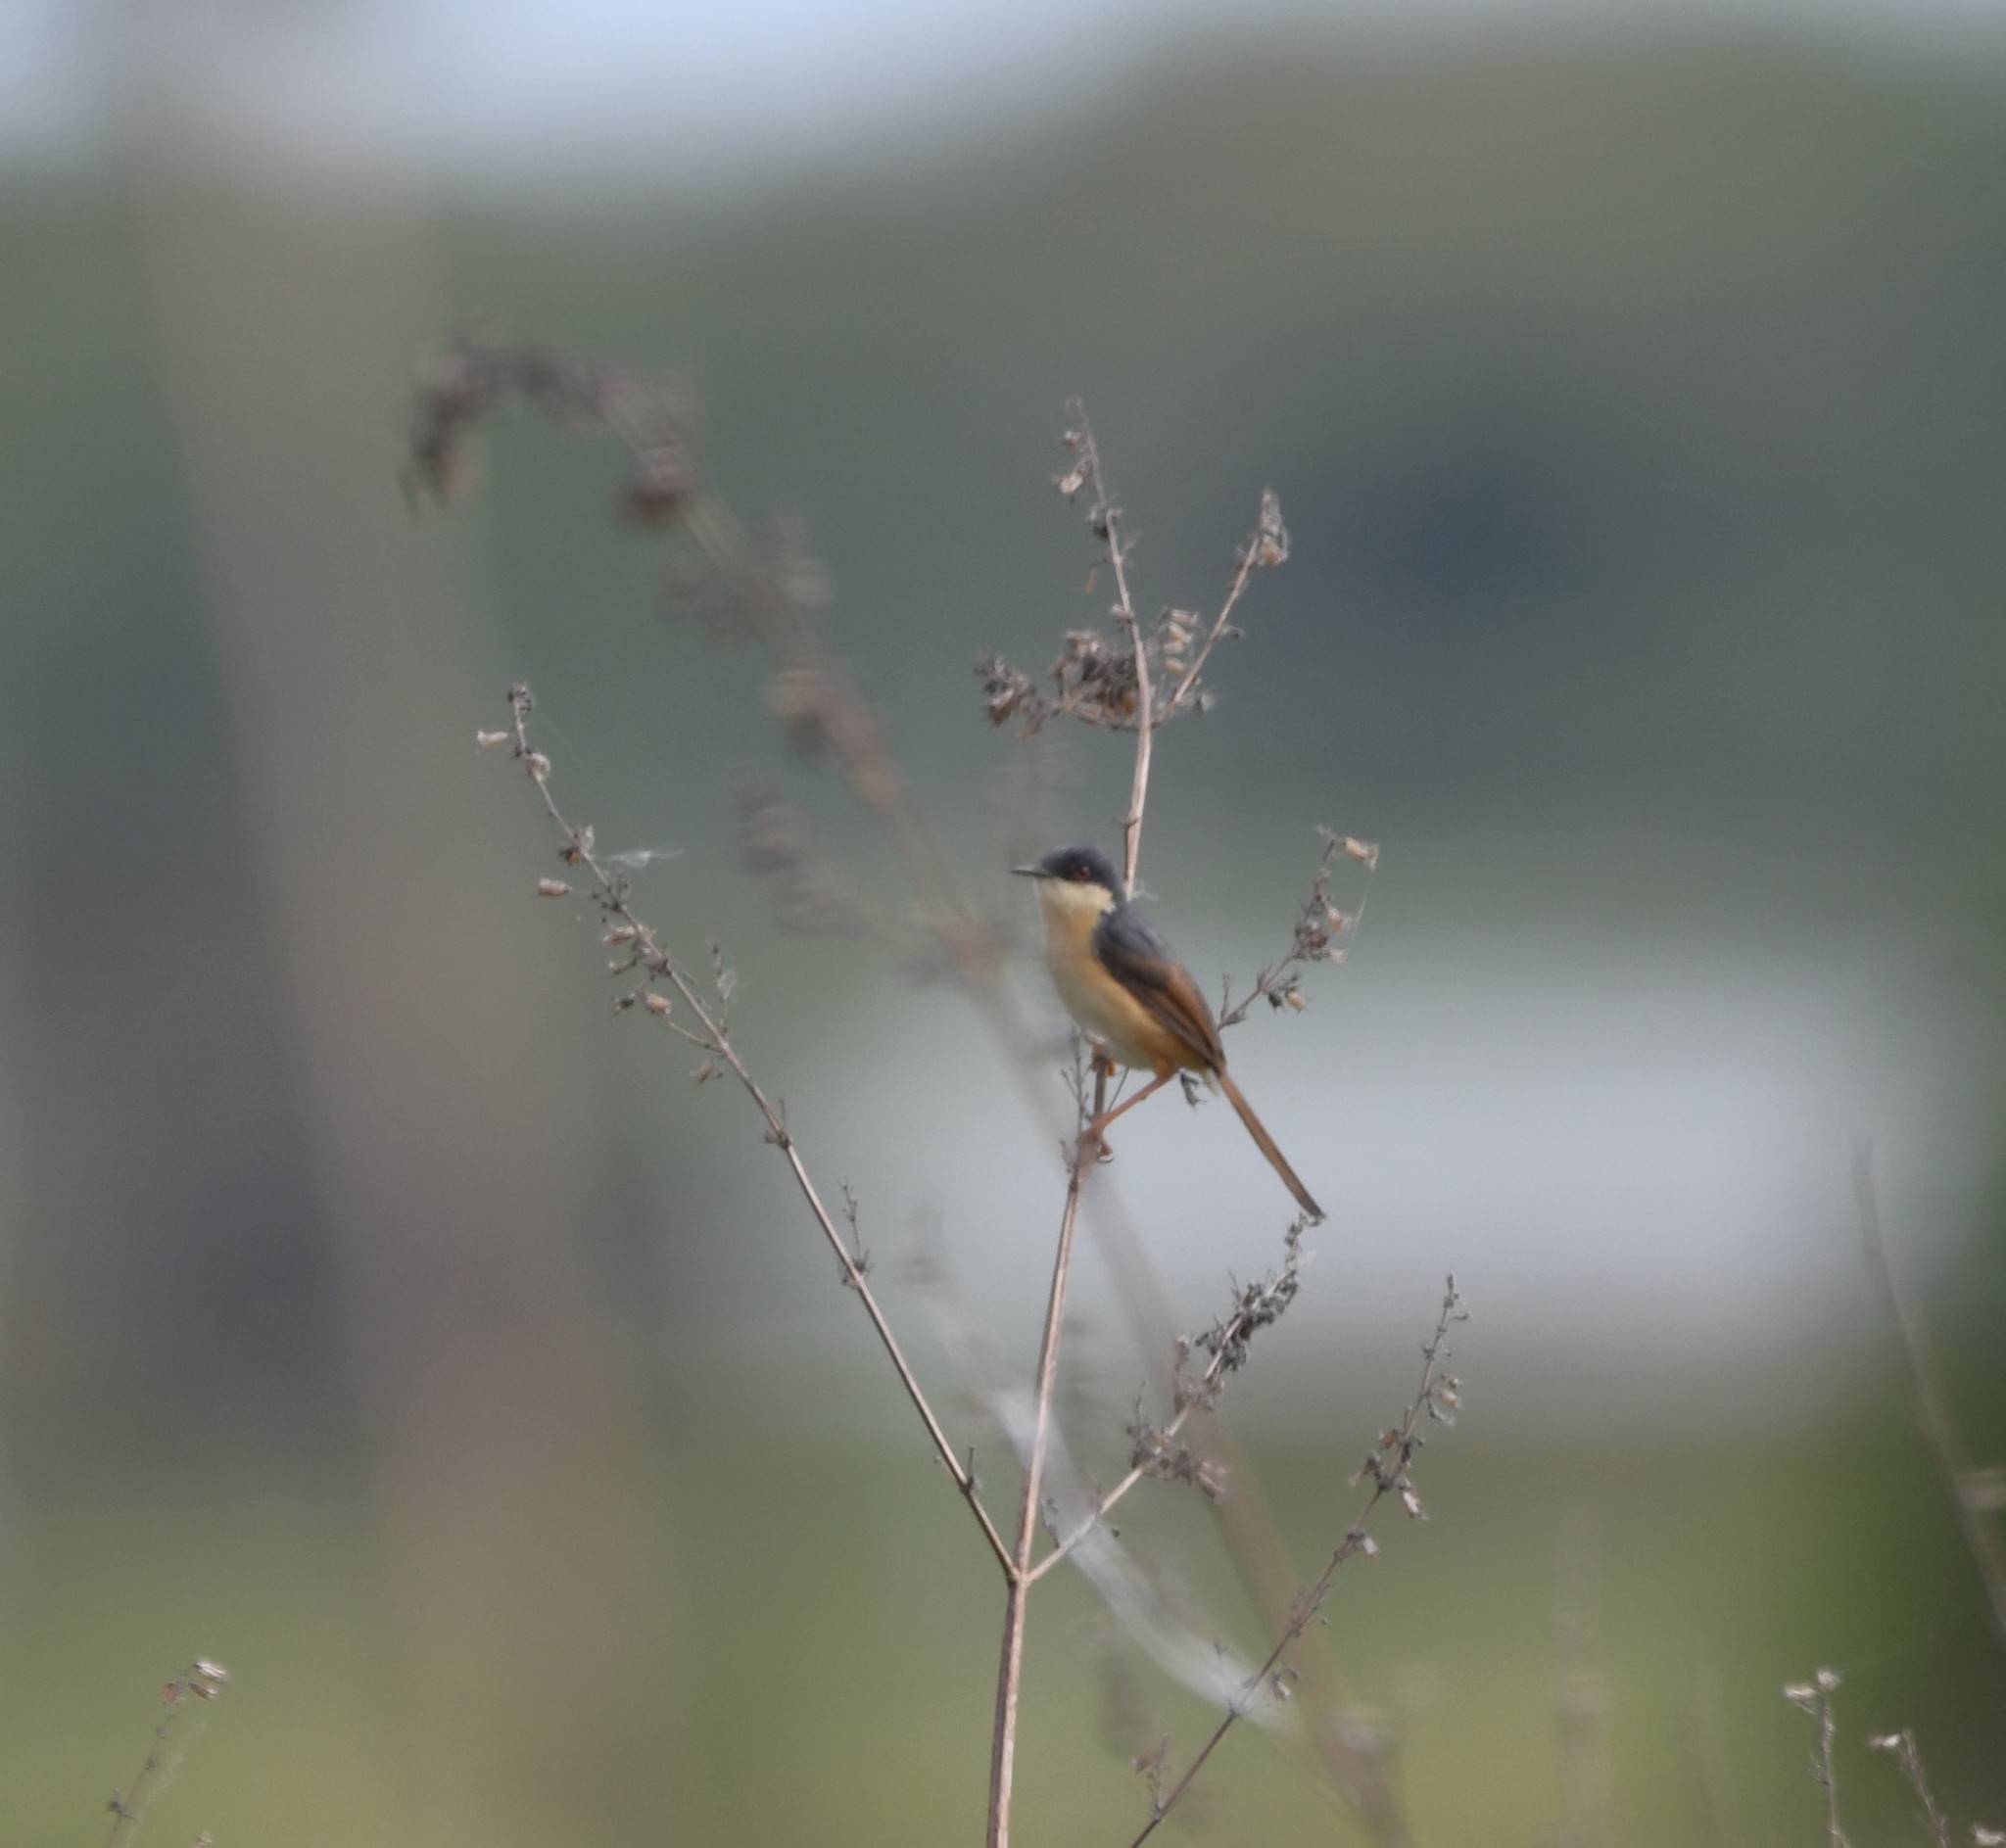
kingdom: Animalia
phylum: Chordata
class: Aves
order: Passeriformes
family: Cisticolidae
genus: Prinia
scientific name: Prinia socialis
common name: Ashy prinia
